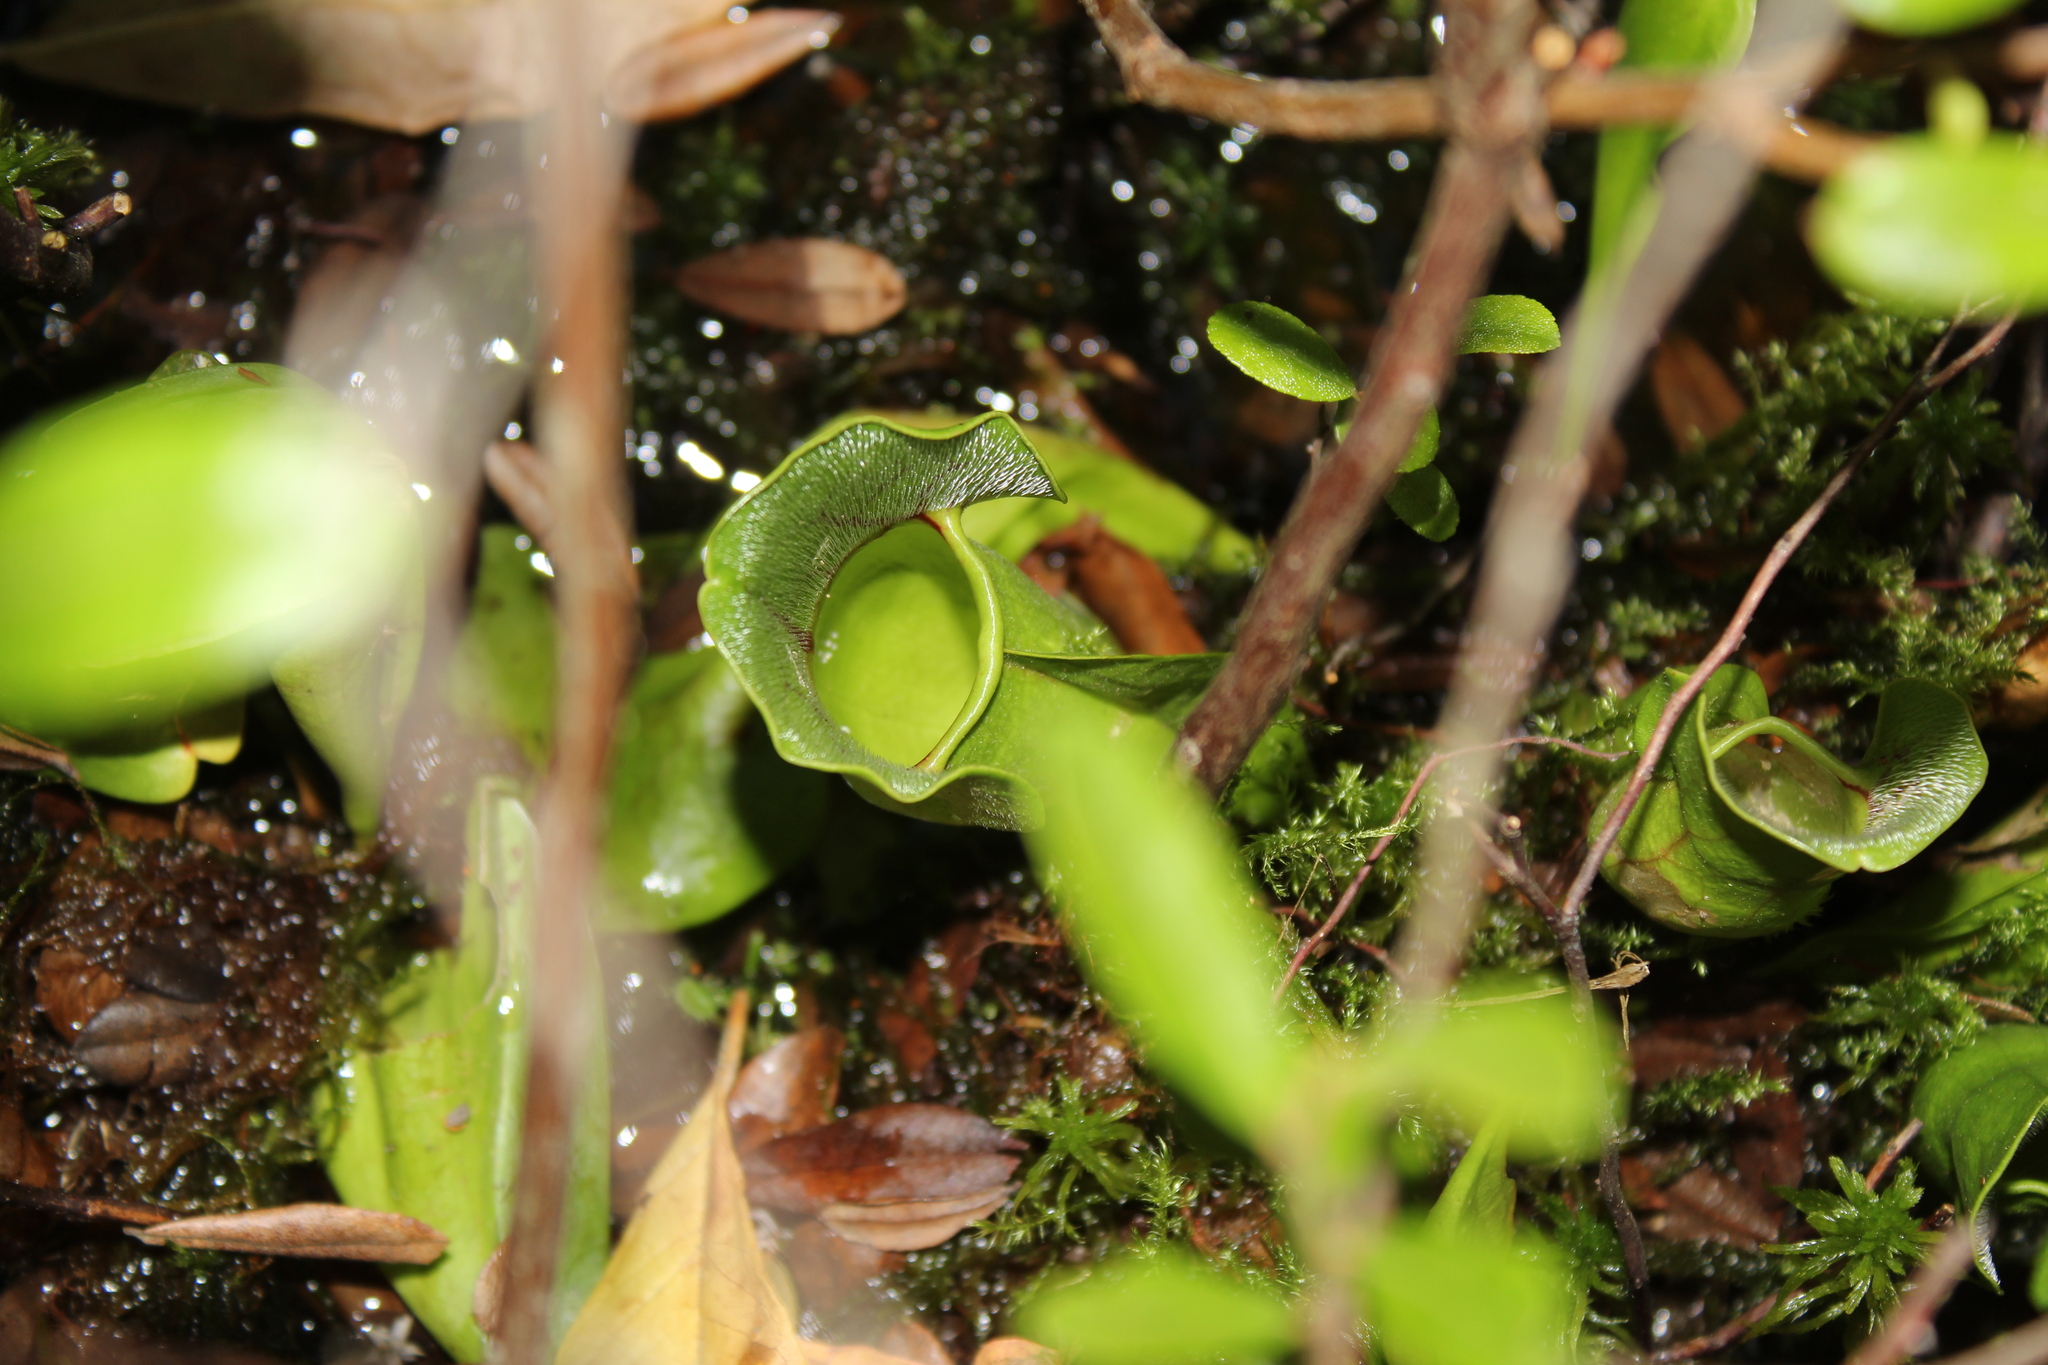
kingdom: Plantae
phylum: Tracheophyta
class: Magnoliopsida
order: Ericales
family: Sarraceniaceae
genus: Sarracenia
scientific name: Sarracenia purpurea
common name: Pitcherplant
